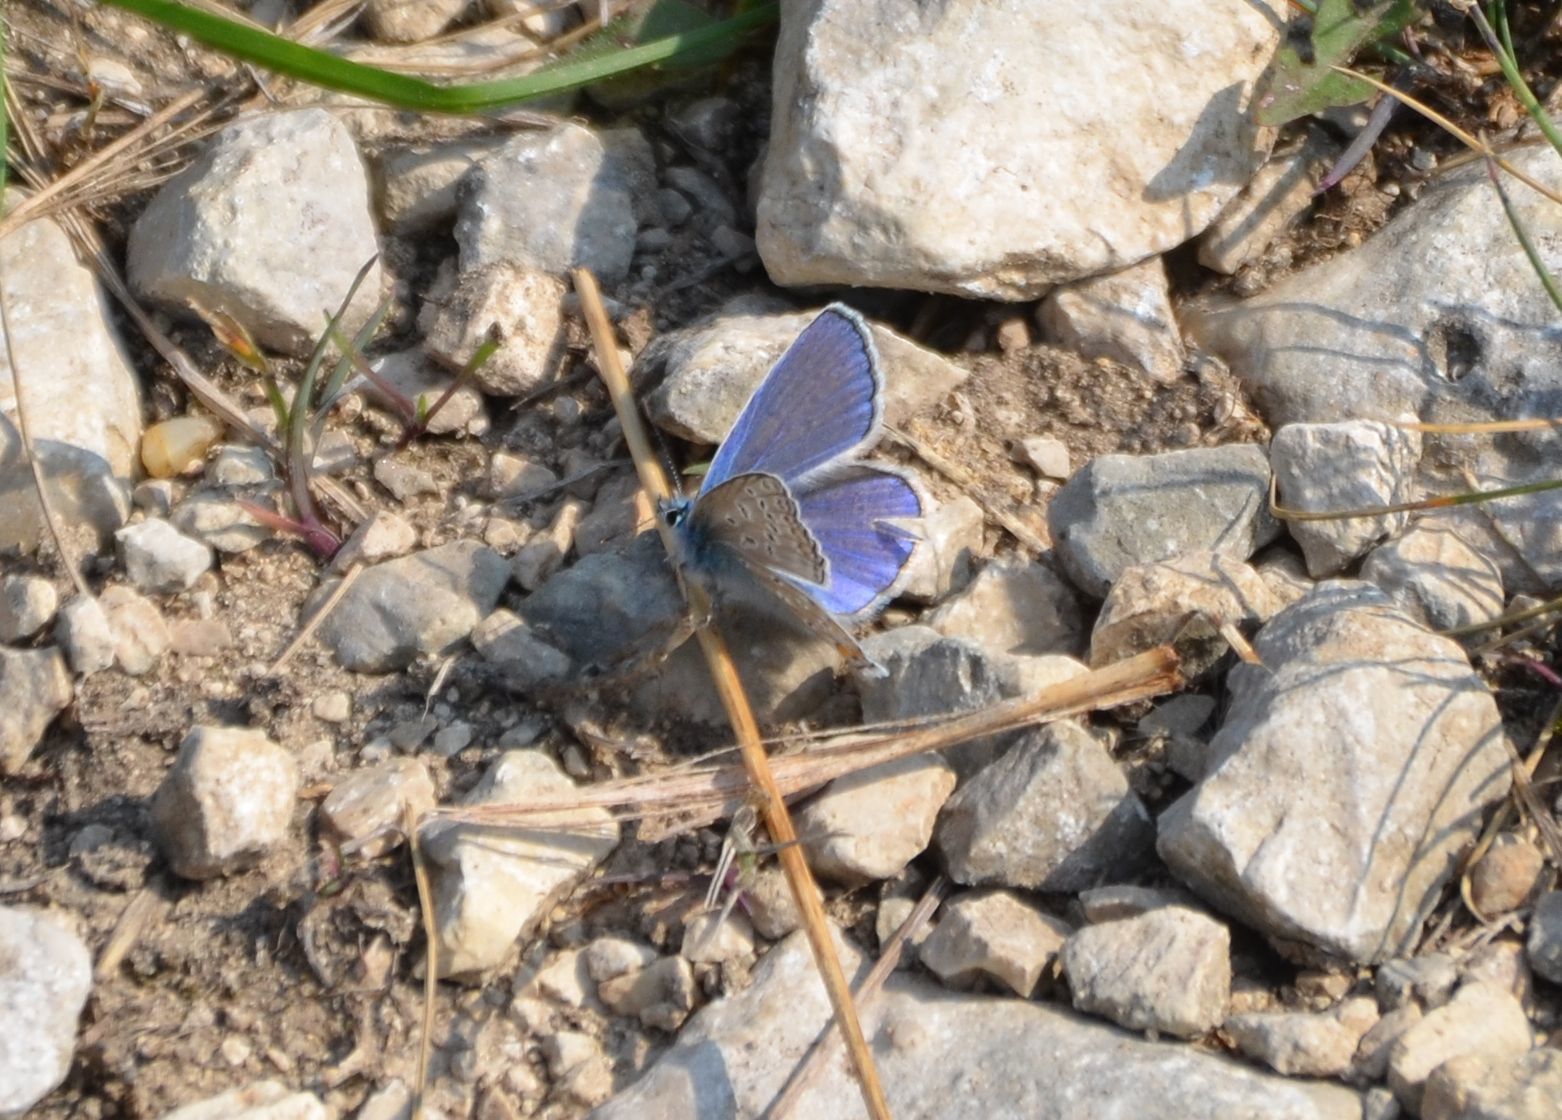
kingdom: Animalia
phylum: Arthropoda
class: Insecta
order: Lepidoptera
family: Lycaenidae
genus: Polyommatus
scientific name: Polyommatus icarus
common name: Common blue
